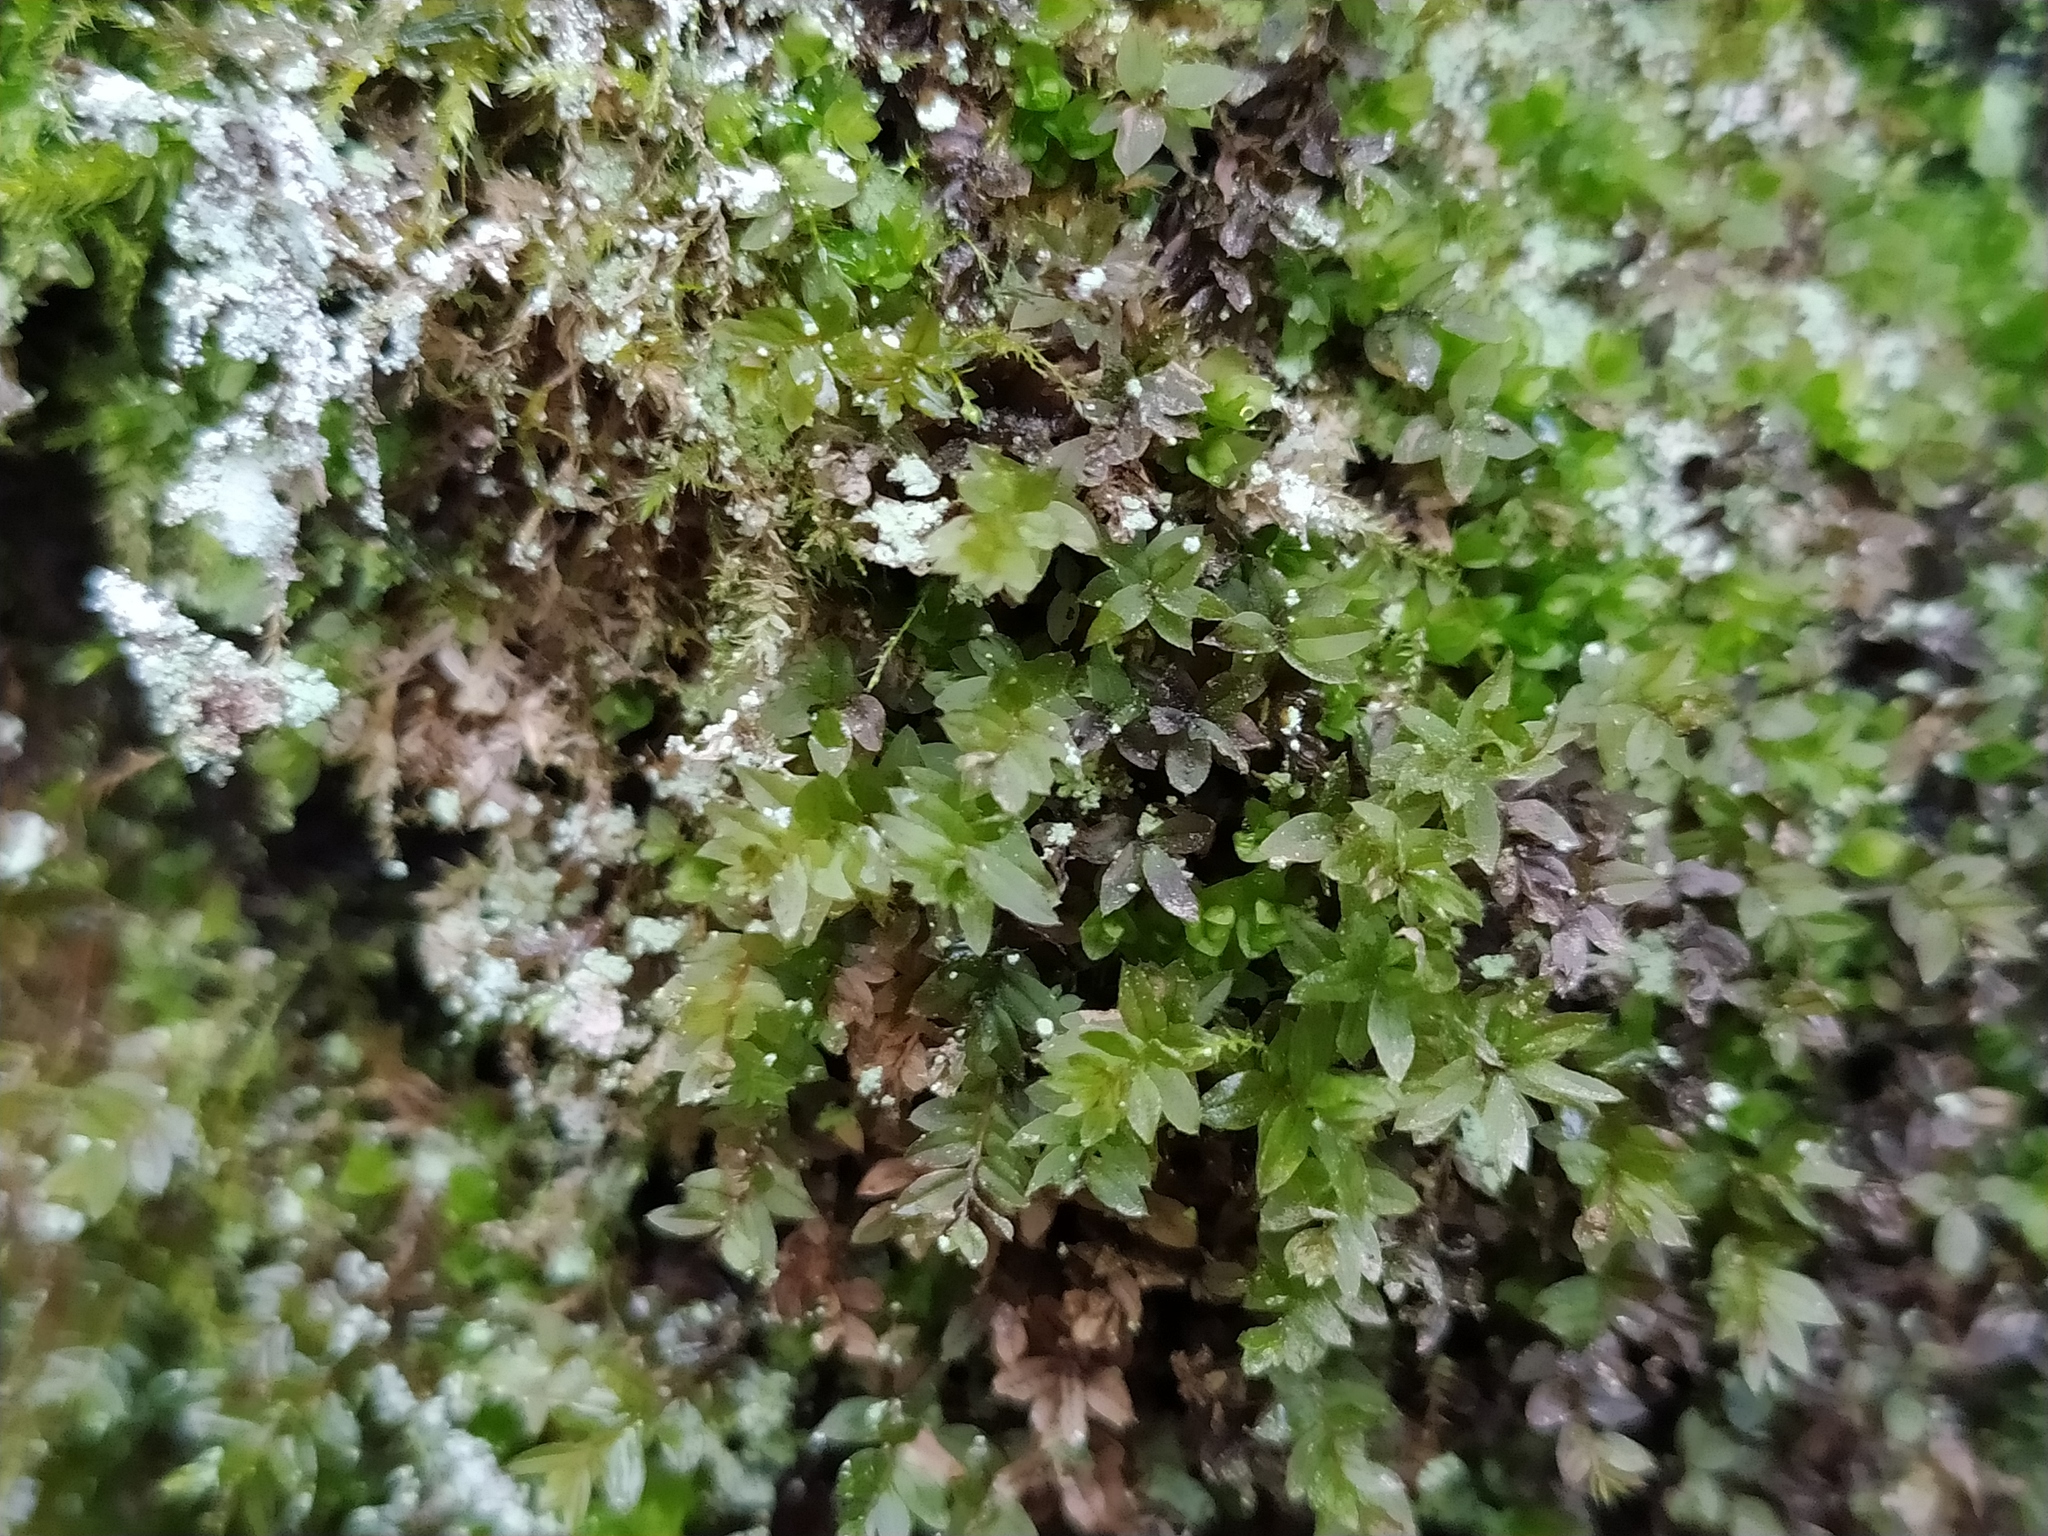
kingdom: Plantae
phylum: Bryophyta
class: Bryopsida
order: Bryales
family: Mniaceae
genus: Mnium
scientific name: Mnium stellare
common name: Star leafy moss
